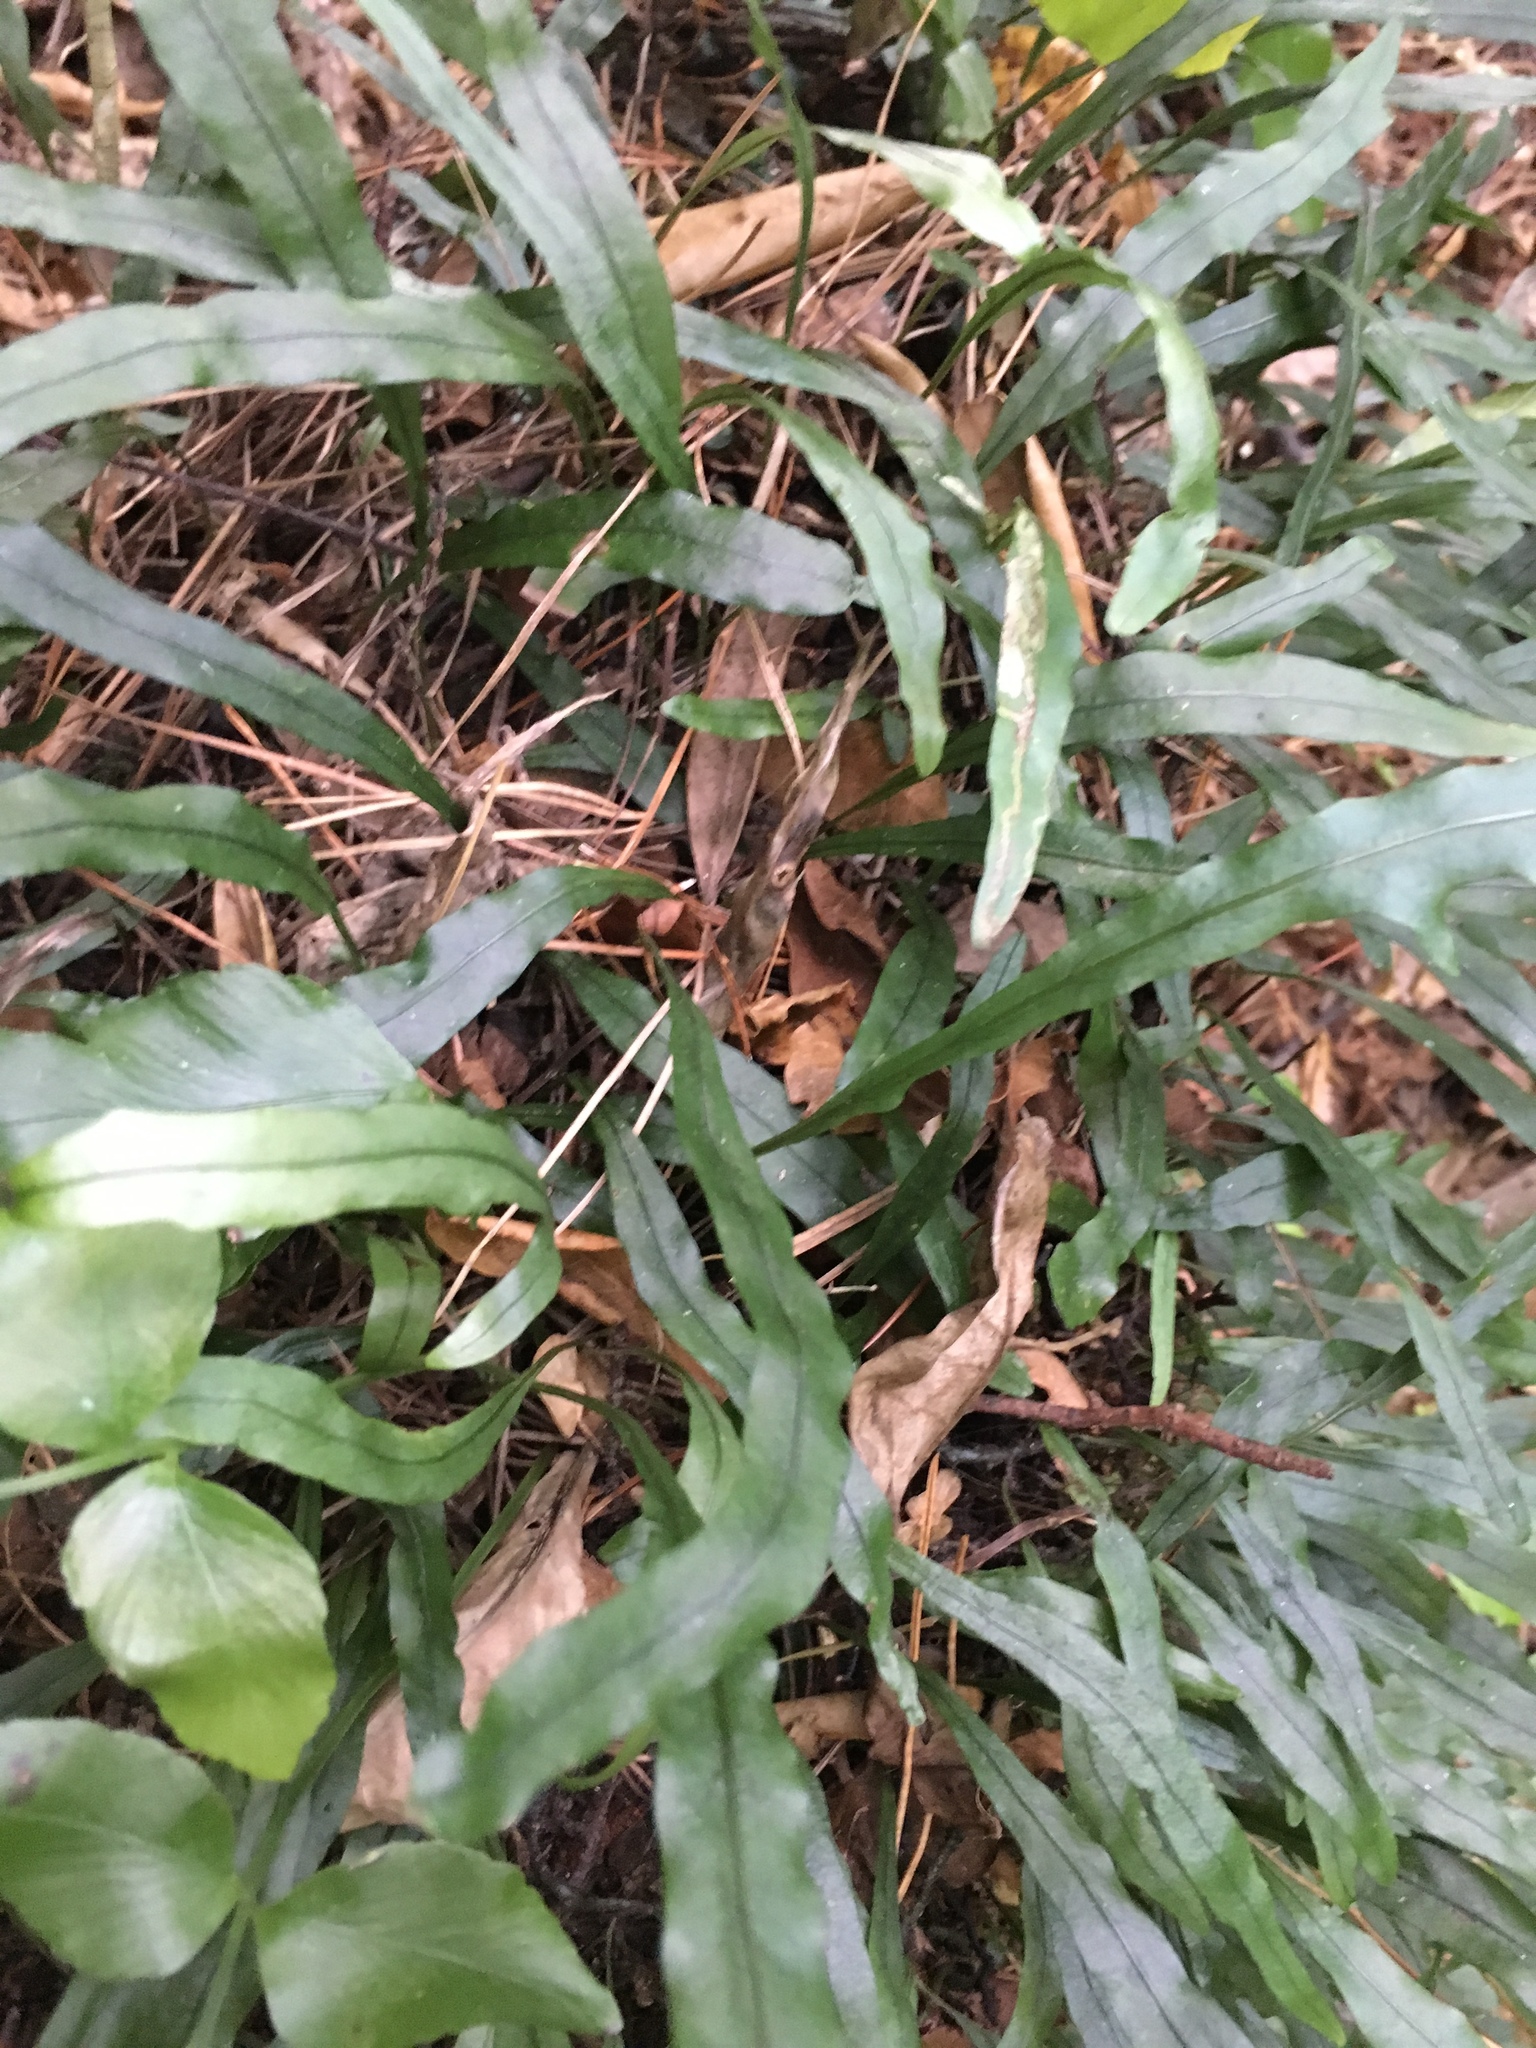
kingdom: Plantae
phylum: Tracheophyta
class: Polypodiopsida
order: Polypodiales
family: Polypodiaceae
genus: Lecanopteris
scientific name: Lecanopteris scandens
